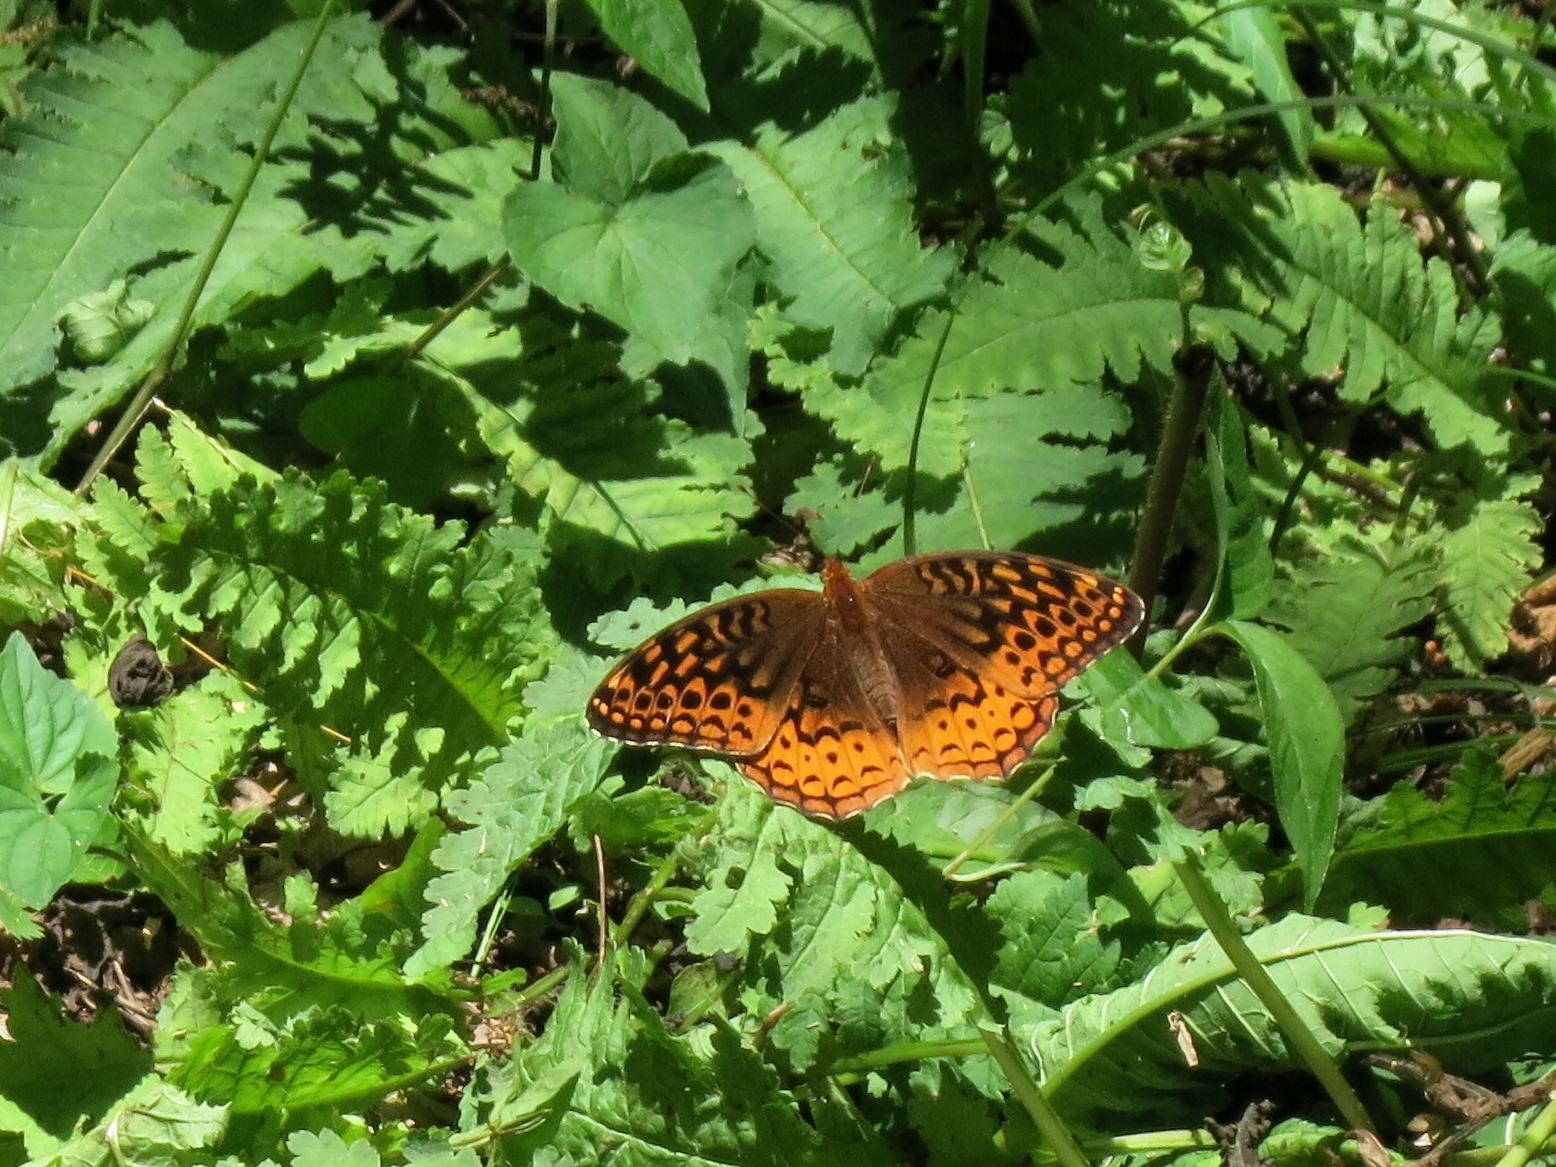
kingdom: Animalia
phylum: Arthropoda
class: Insecta
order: Lepidoptera
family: Nymphalidae
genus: Speyeria
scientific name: Speyeria cybele
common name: Great spangled fritillary
